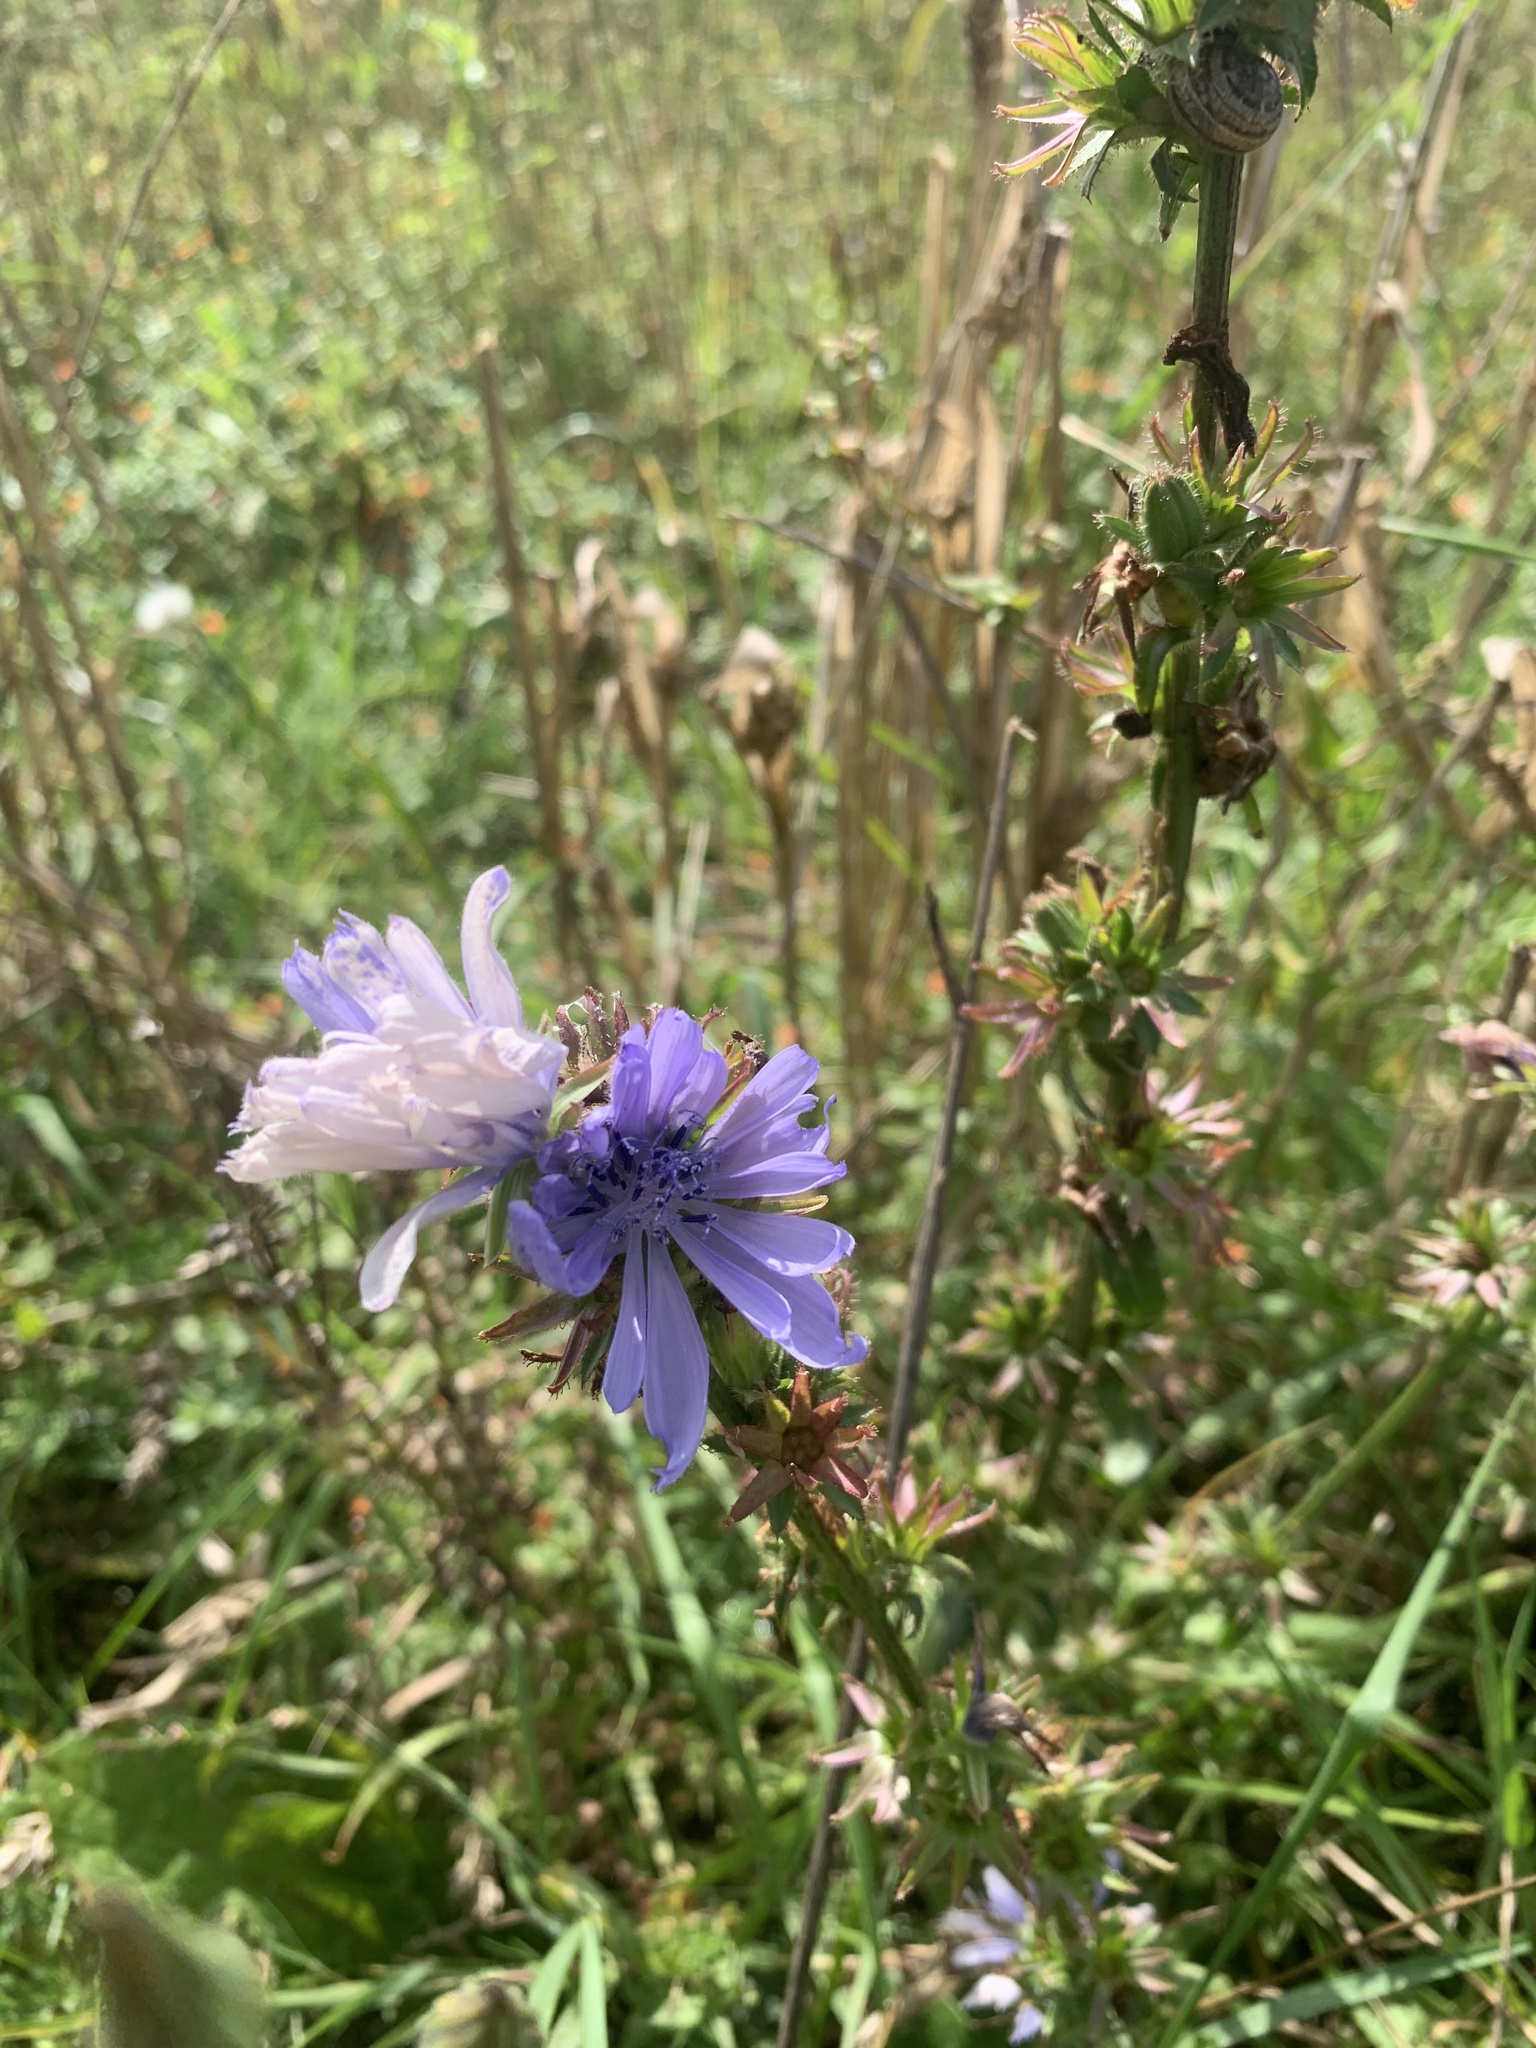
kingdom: Plantae
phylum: Tracheophyta
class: Magnoliopsida
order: Asterales
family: Asteraceae
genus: Cichorium
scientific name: Cichorium intybus
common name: Chicory
